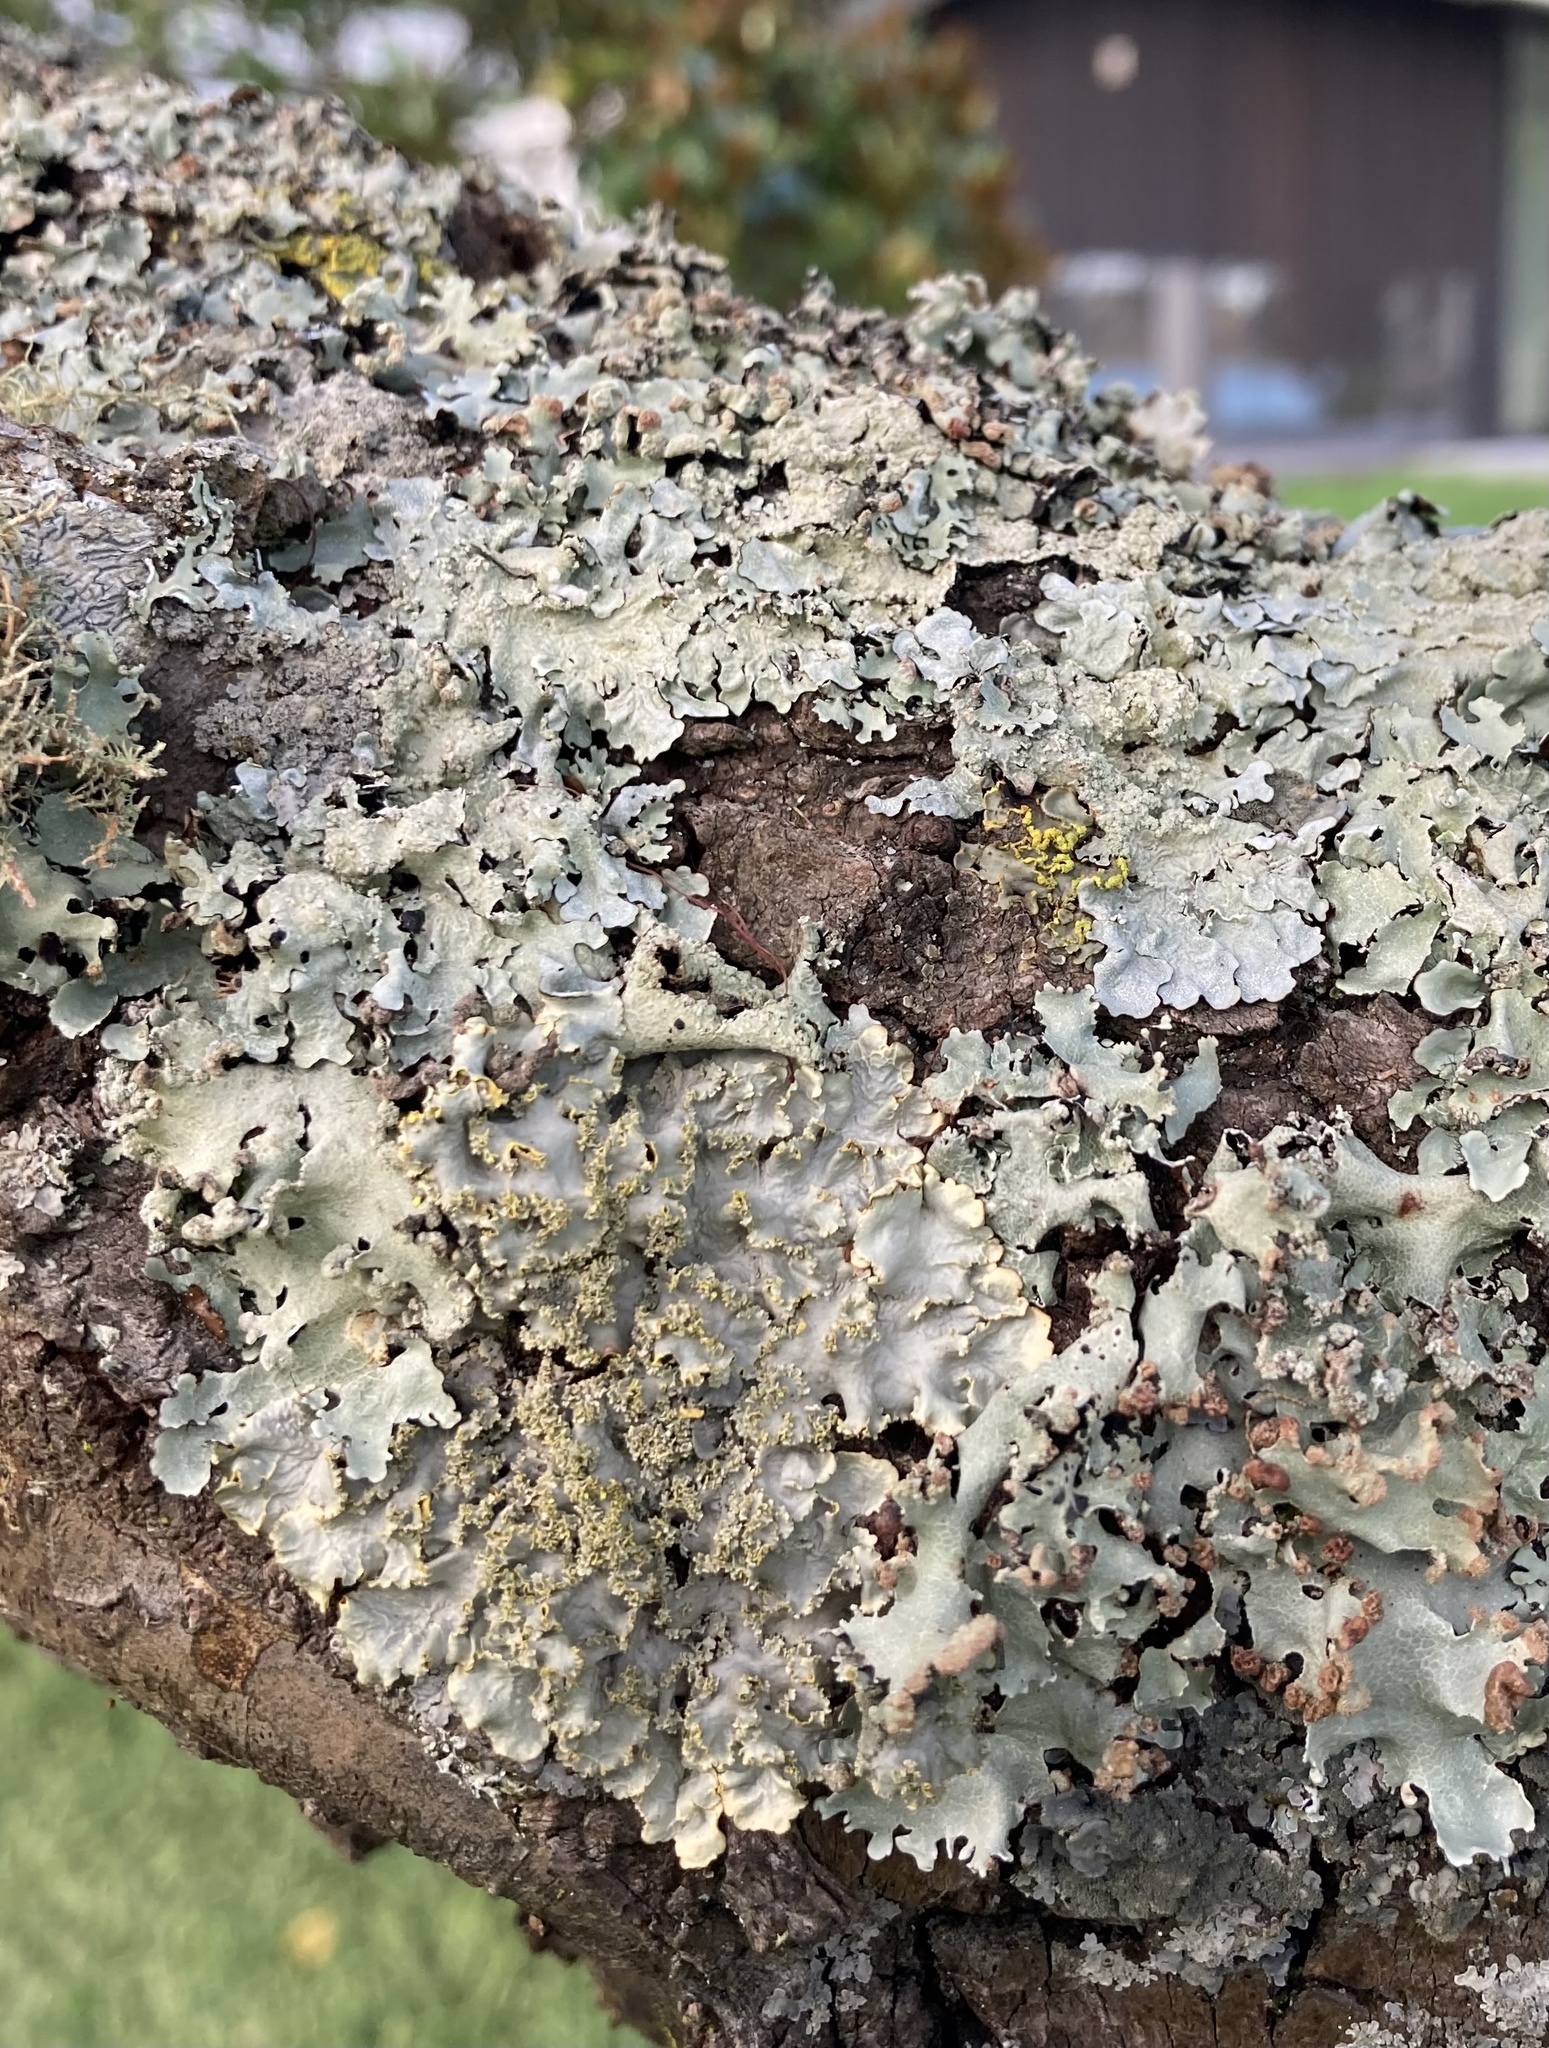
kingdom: Fungi
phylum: Ascomycota
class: Lecanoromycetes
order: Lecanorales
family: Parmeliaceae
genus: Parmotrema
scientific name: Parmotrema reticulatum
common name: Black sheet lichen
